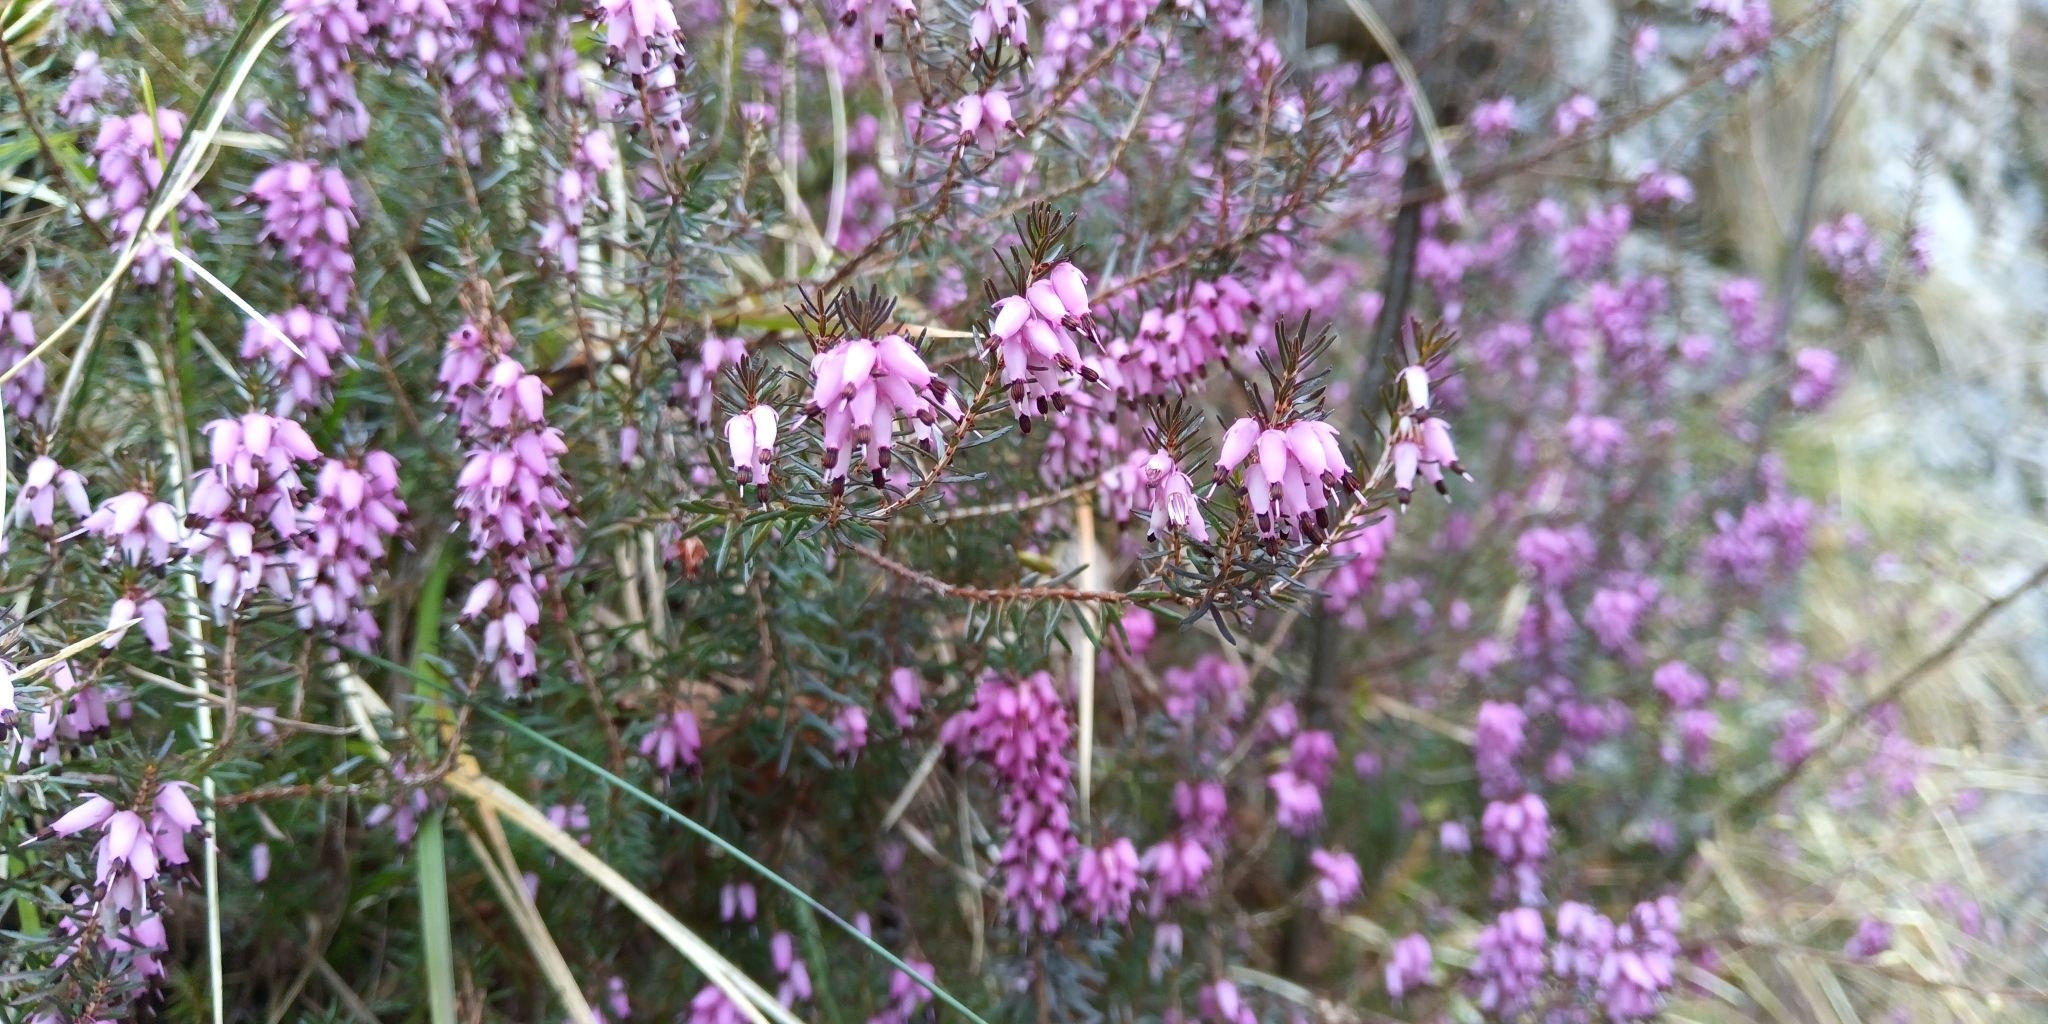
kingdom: Plantae
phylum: Tracheophyta
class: Magnoliopsida
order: Ericales
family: Ericaceae
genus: Erica
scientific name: Erica carnea
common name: Winter heath
